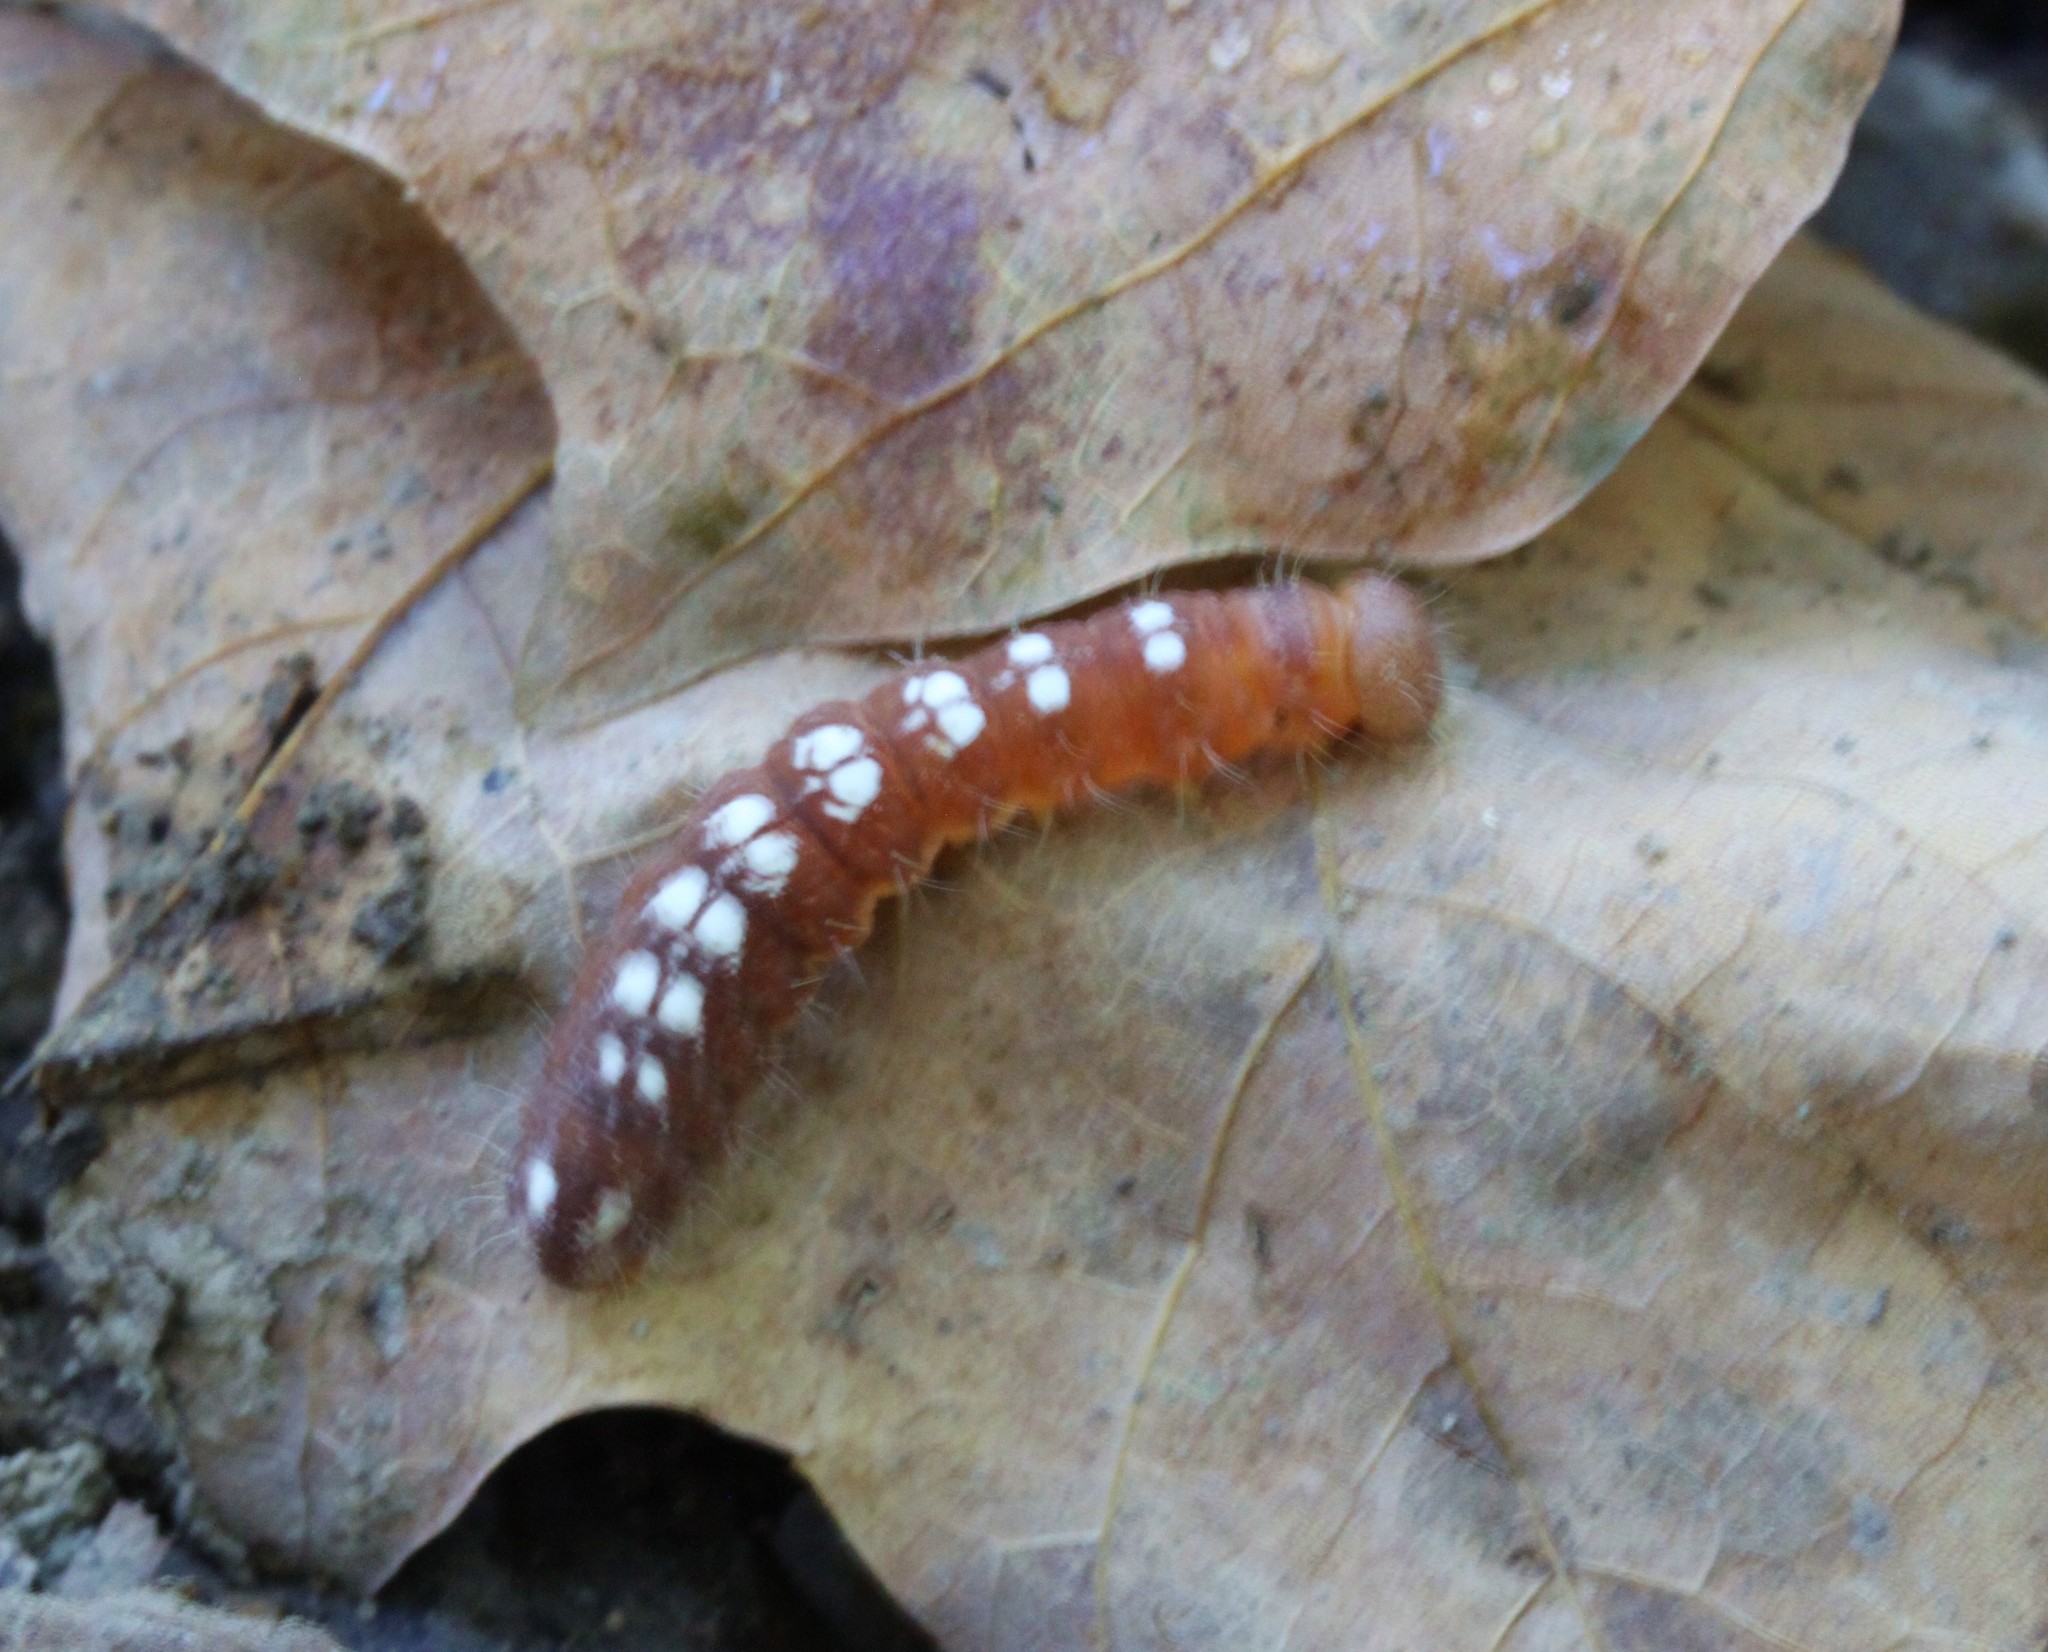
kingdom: Animalia
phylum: Arthropoda
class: Insecta
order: Lepidoptera
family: Noctuidae
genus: Acronicta
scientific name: Acronicta ovata
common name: Epauleted oak dagger
